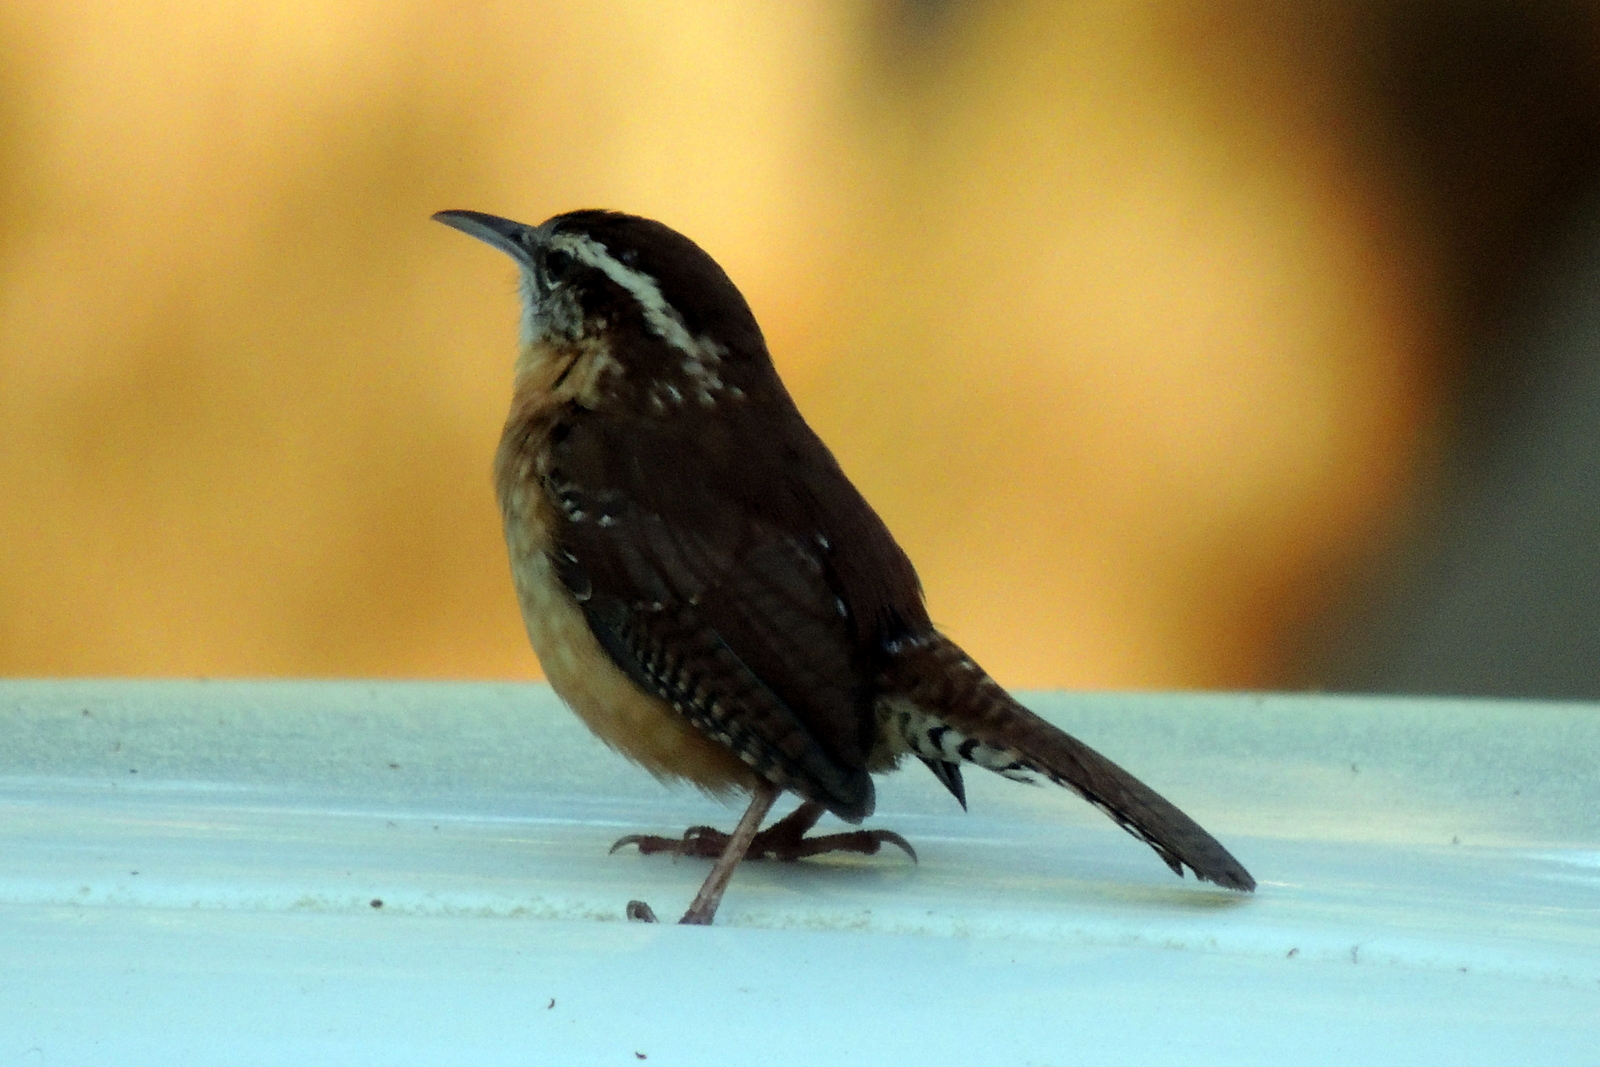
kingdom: Animalia
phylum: Chordata
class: Aves
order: Passeriformes
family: Troglodytidae
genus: Thryothorus
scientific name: Thryothorus ludovicianus
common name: Carolina wren
